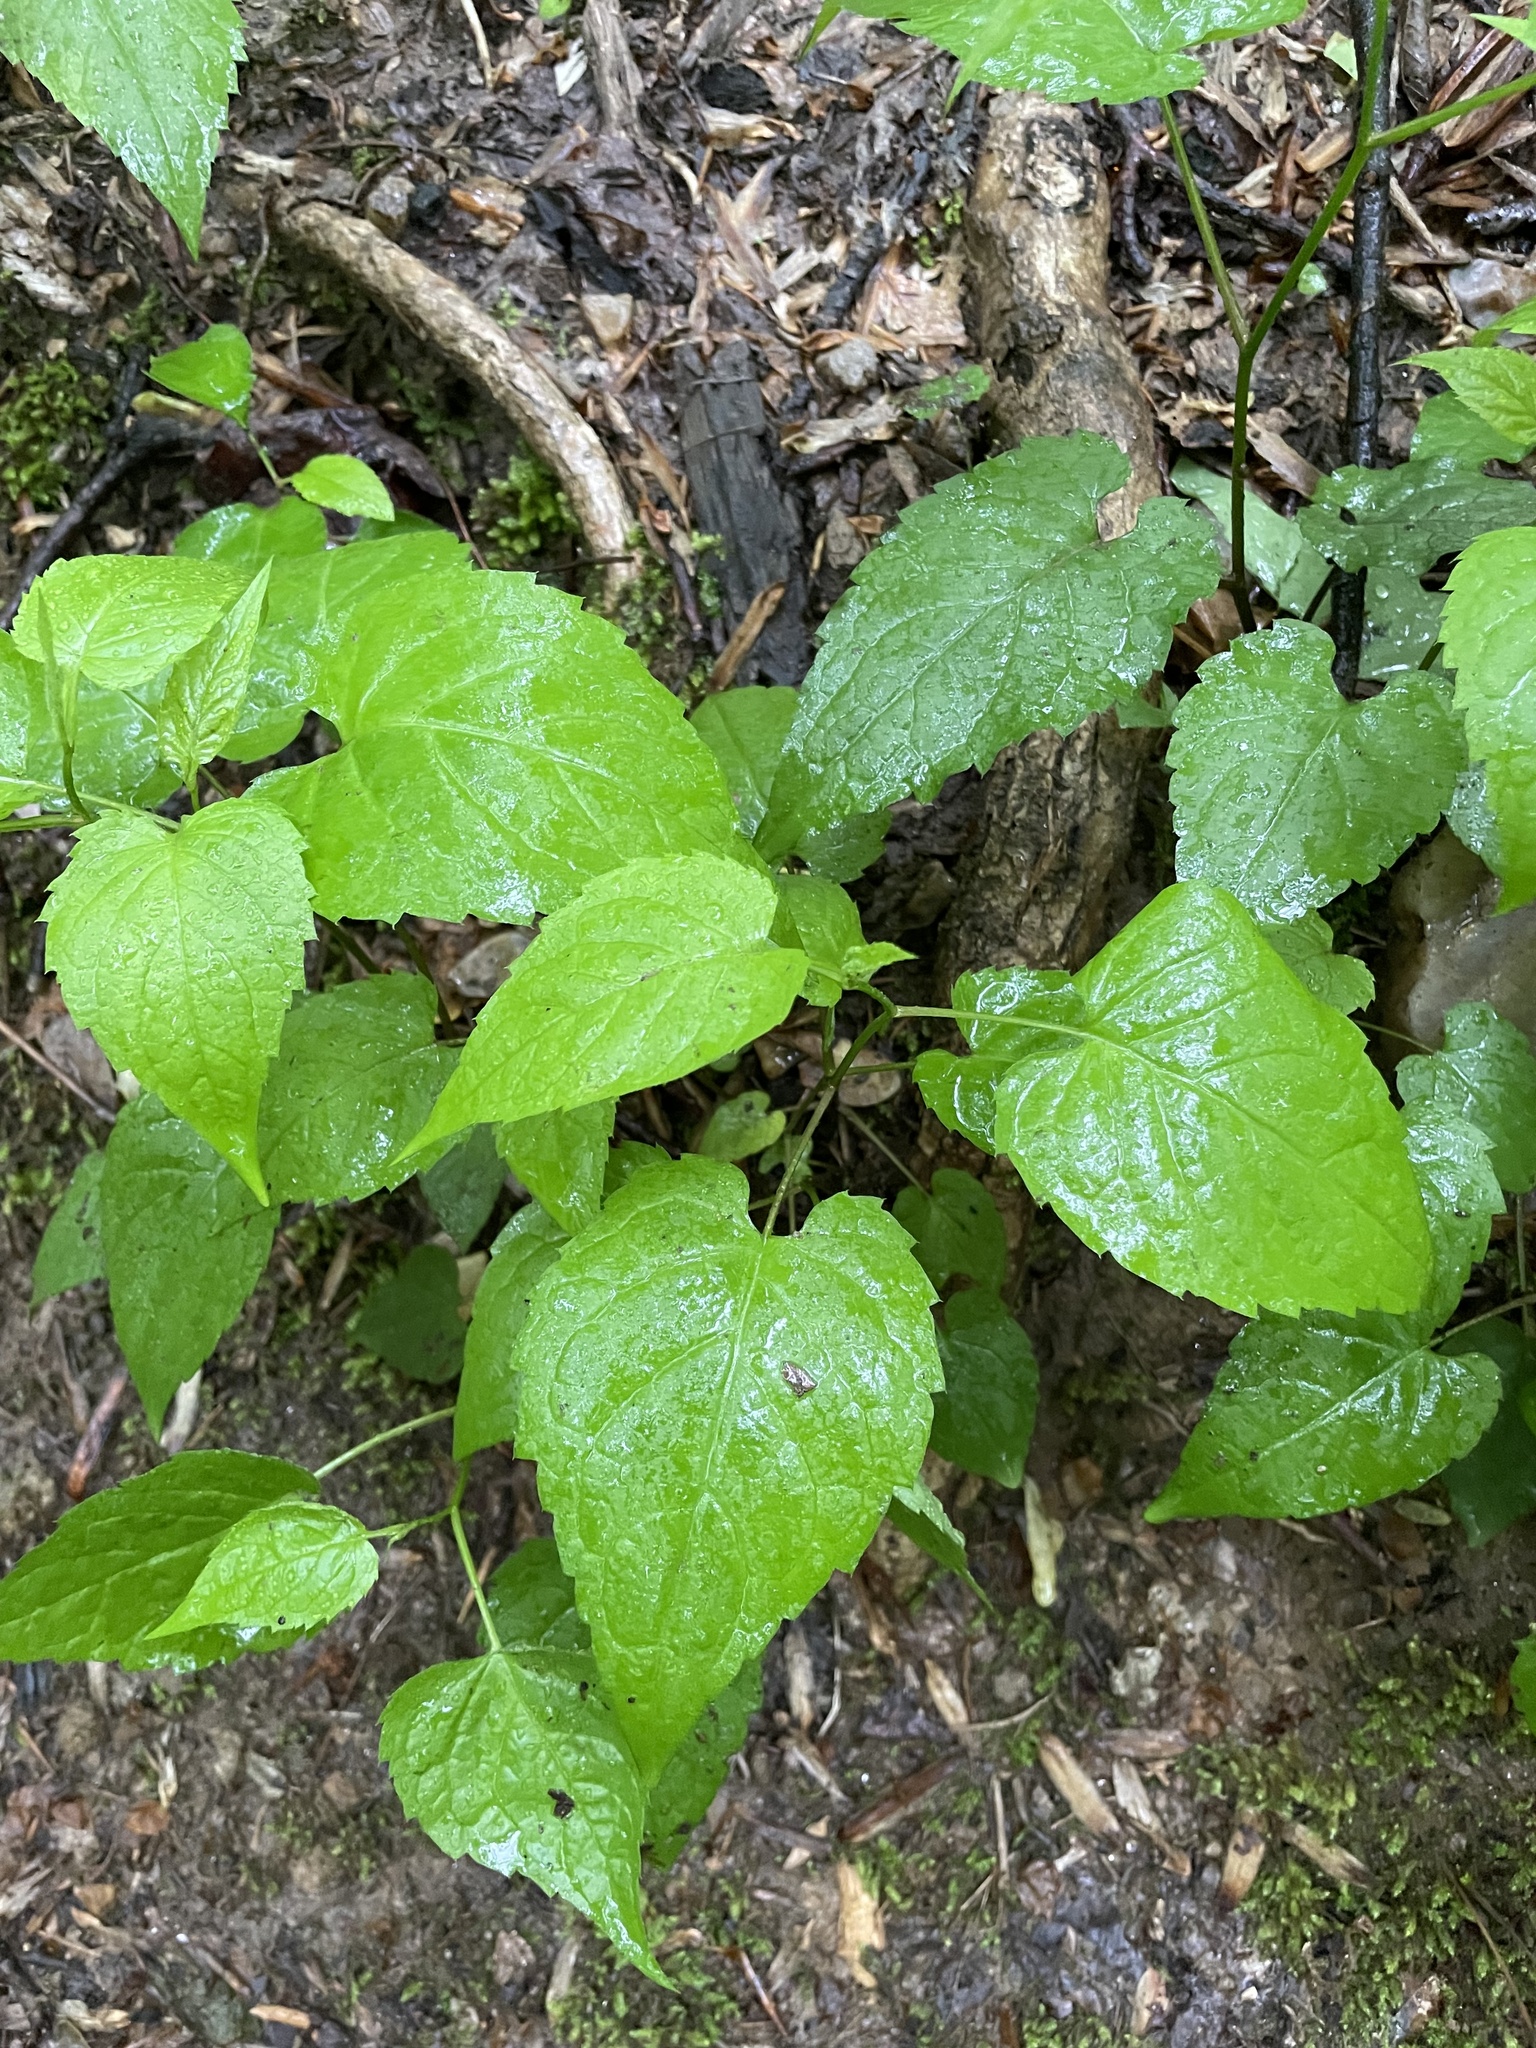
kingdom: Plantae
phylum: Tracheophyta
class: Magnoliopsida
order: Asterales
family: Asteraceae
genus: Eurybia
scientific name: Eurybia divaricata
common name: White wood aster
